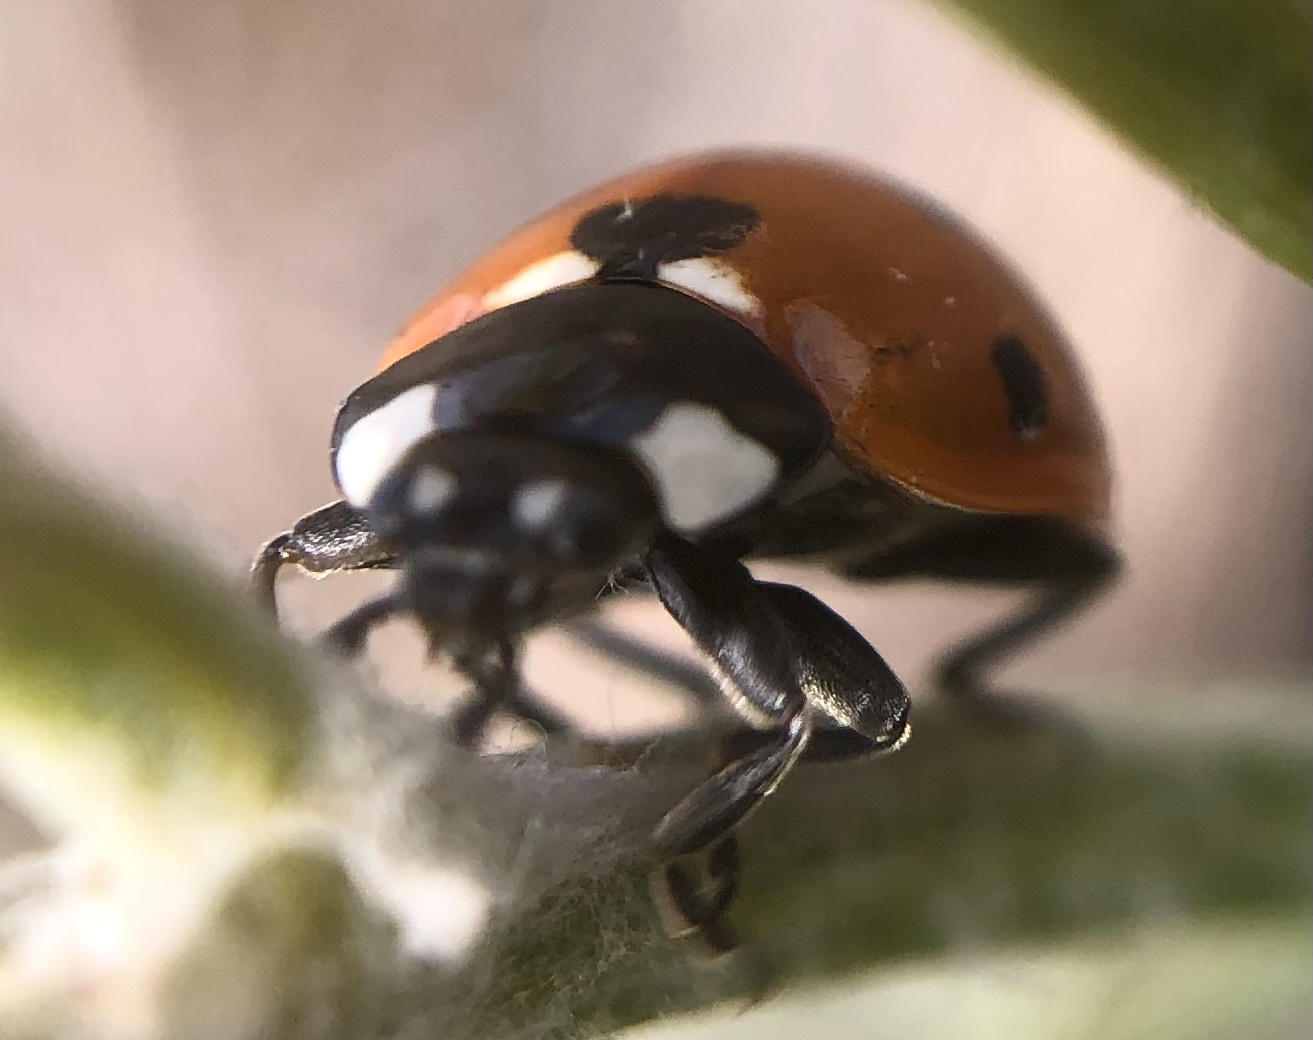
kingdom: Animalia
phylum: Arthropoda
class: Insecta
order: Coleoptera
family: Coccinellidae
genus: Coccinella
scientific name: Coccinella septempunctata
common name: Sevenspotted lady beetle
